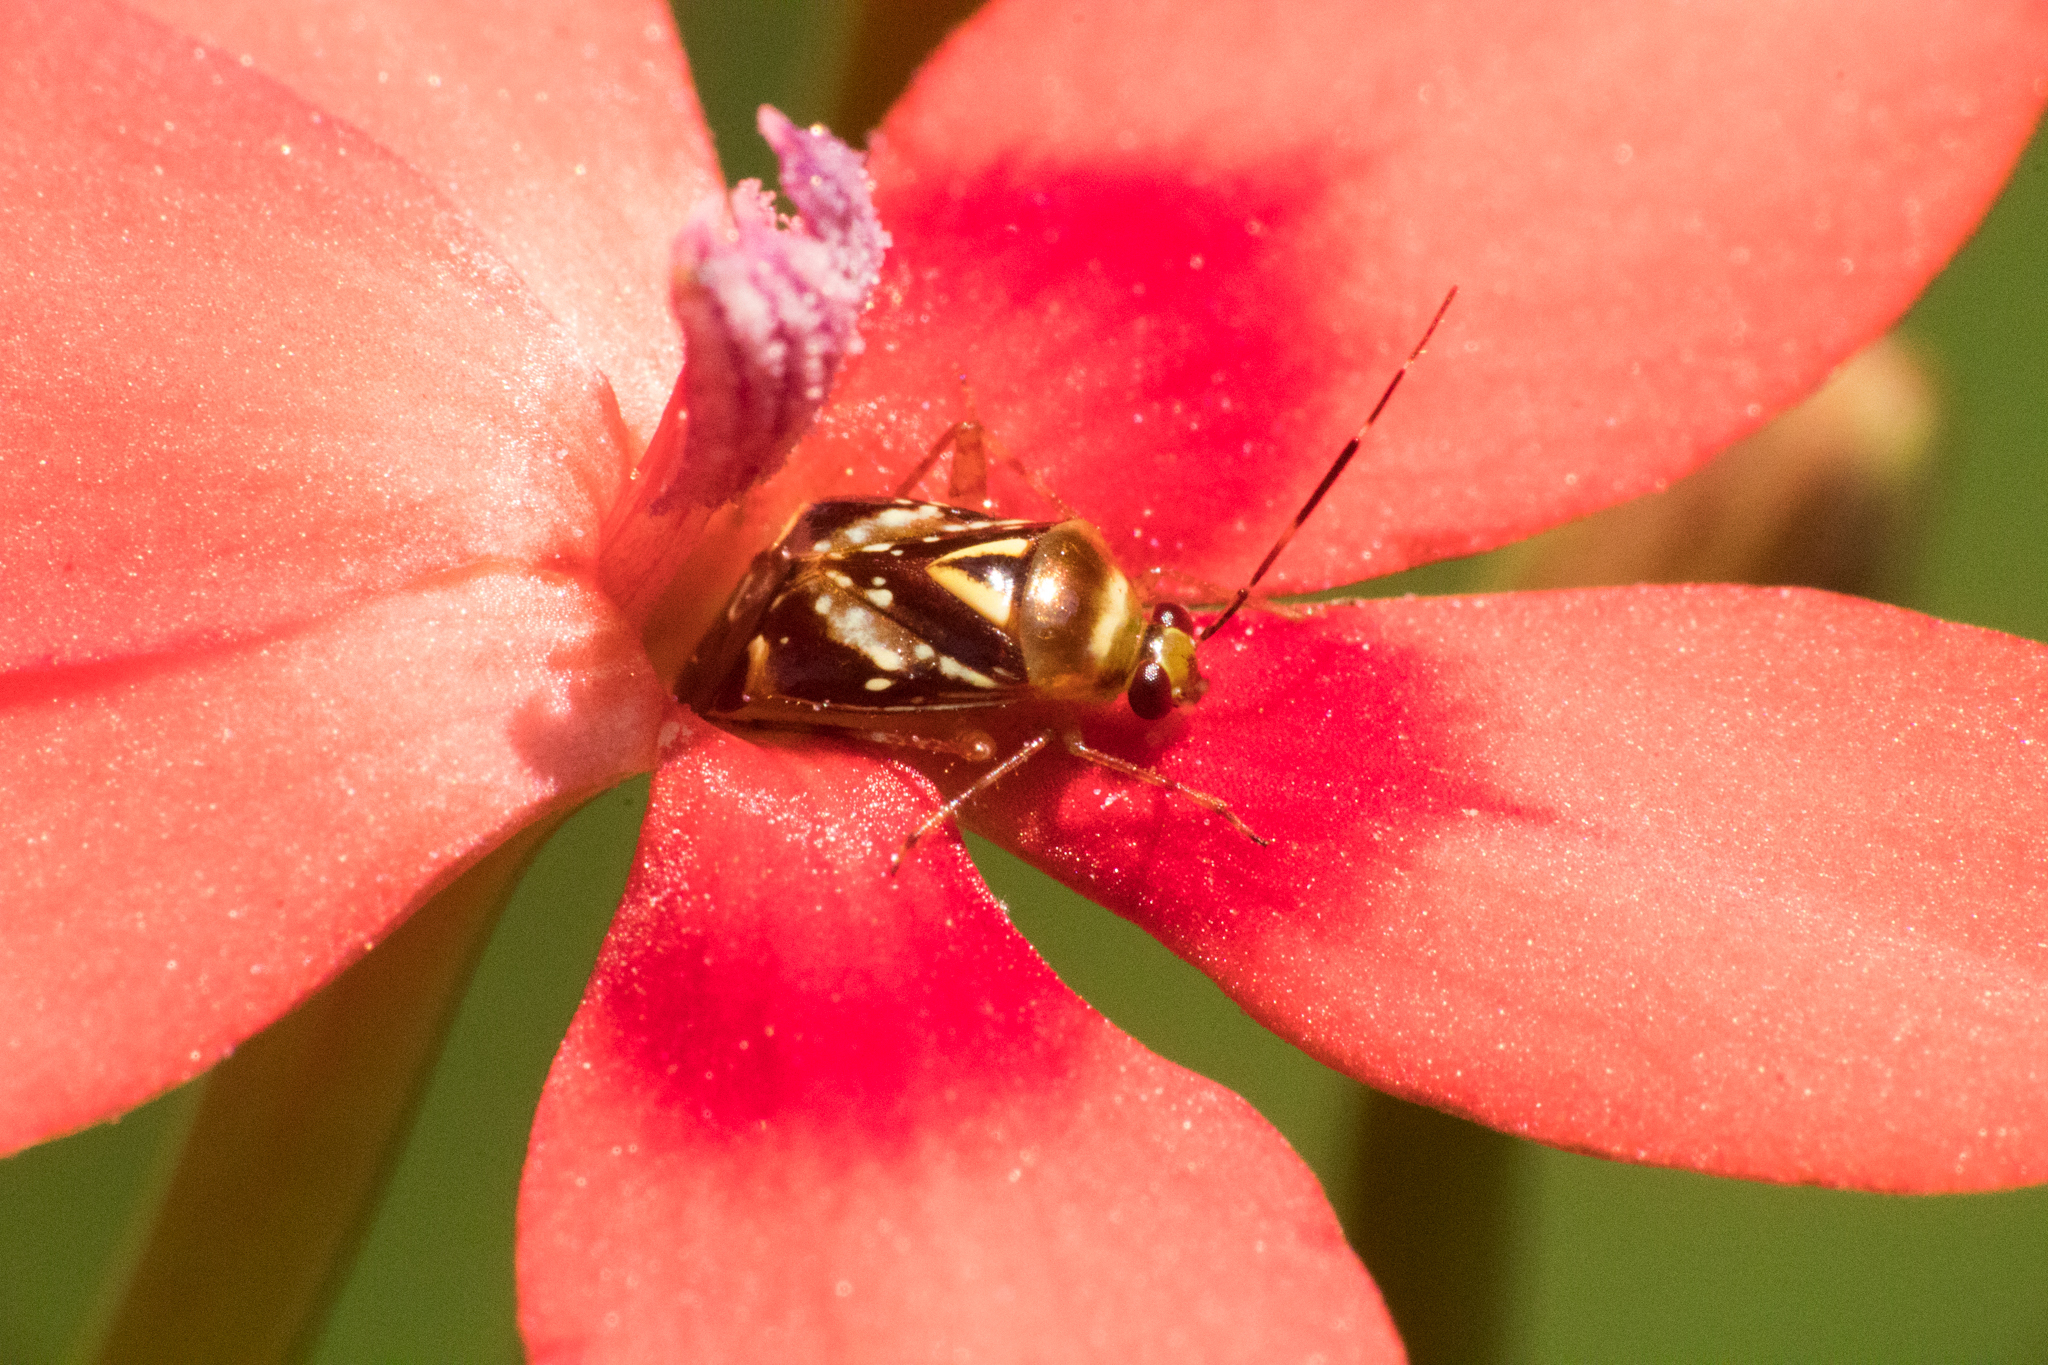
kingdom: Animalia
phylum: Arthropoda
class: Insecta
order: Hemiptera
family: Miridae
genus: Horciasoides
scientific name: Horciasoides nobilellus
